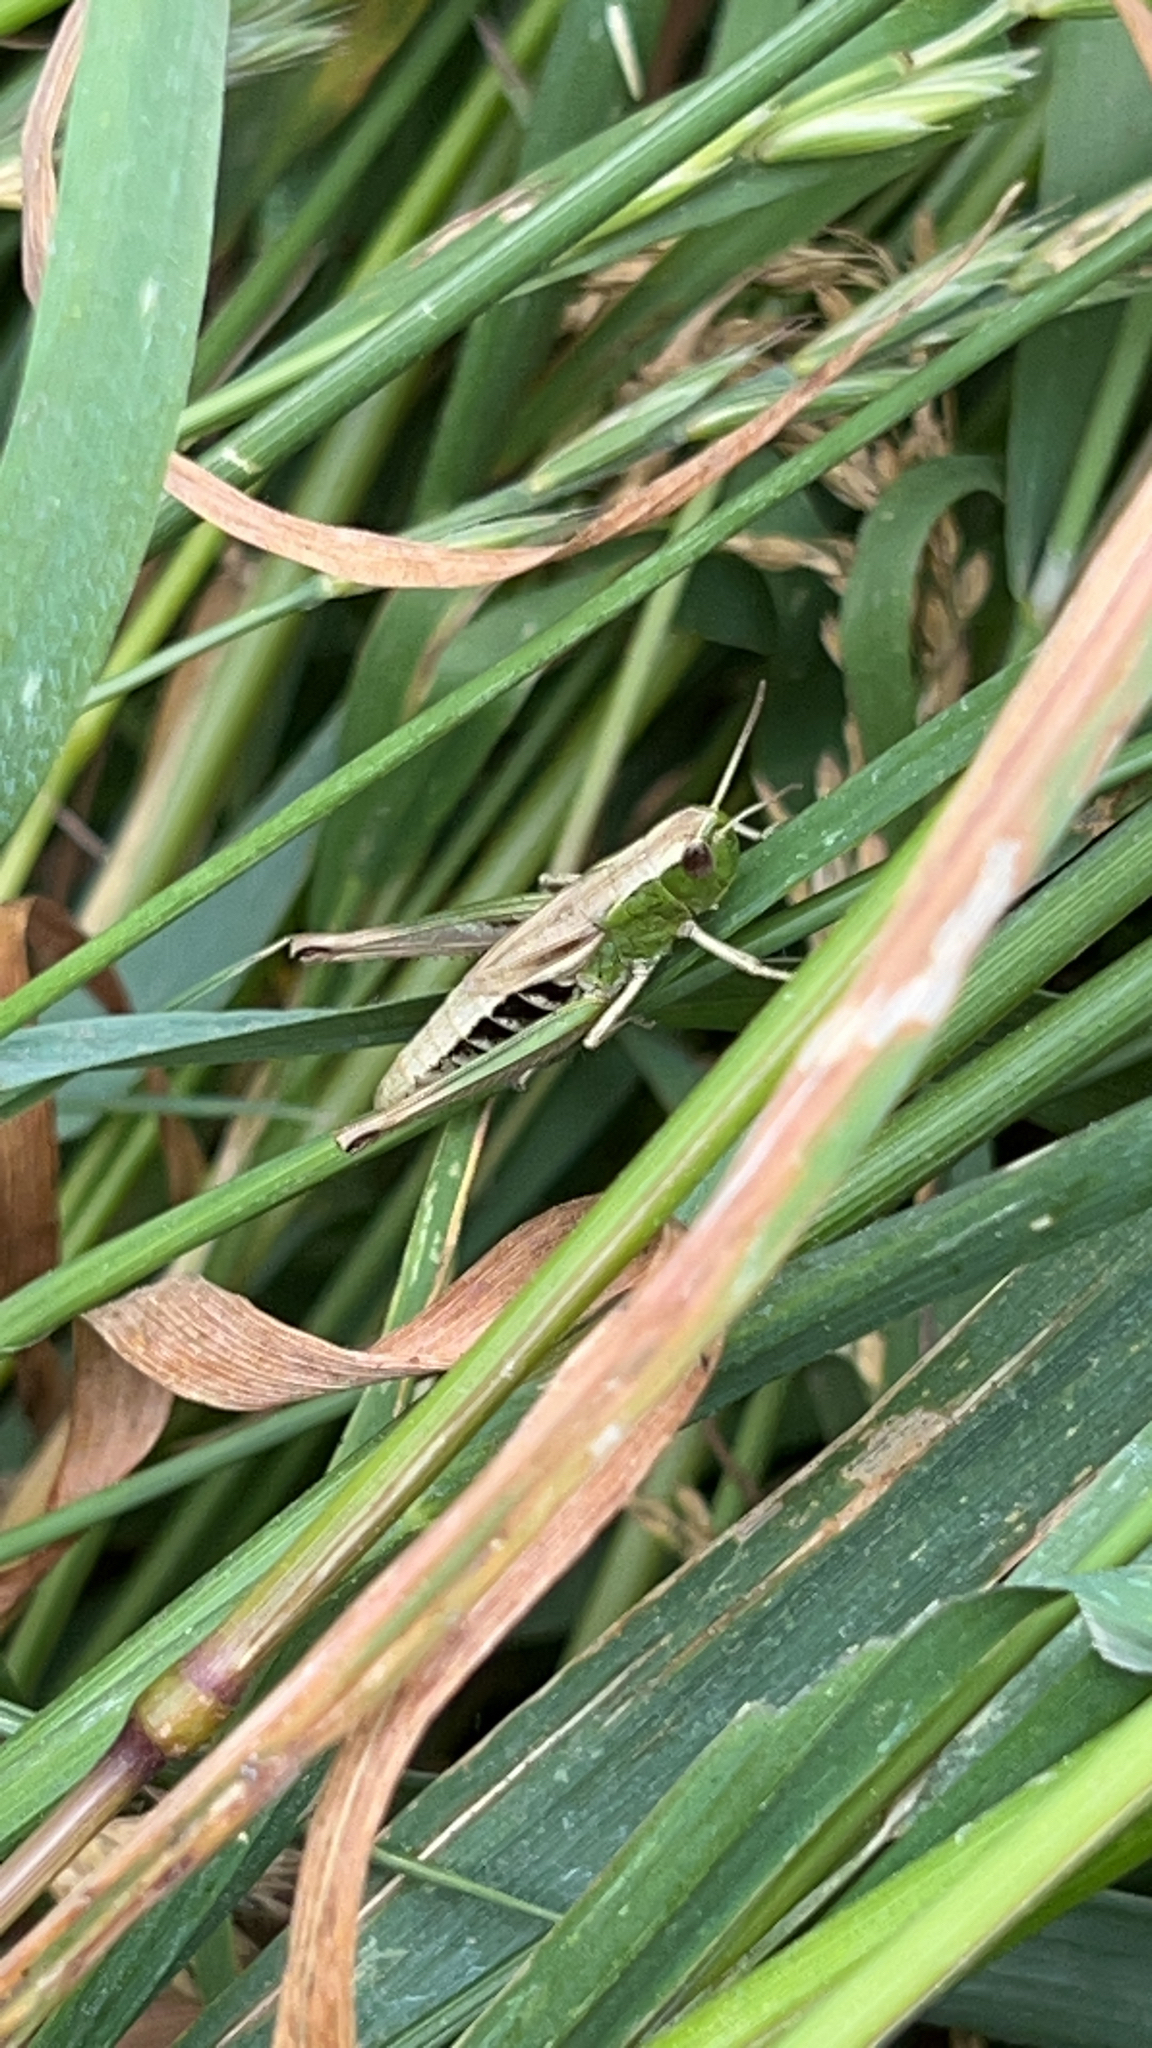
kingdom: Animalia
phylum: Arthropoda
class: Insecta
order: Orthoptera
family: Acrididae
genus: Pseudochorthippus
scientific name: Pseudochorthippus parallelus
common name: Meadow grasshopper
